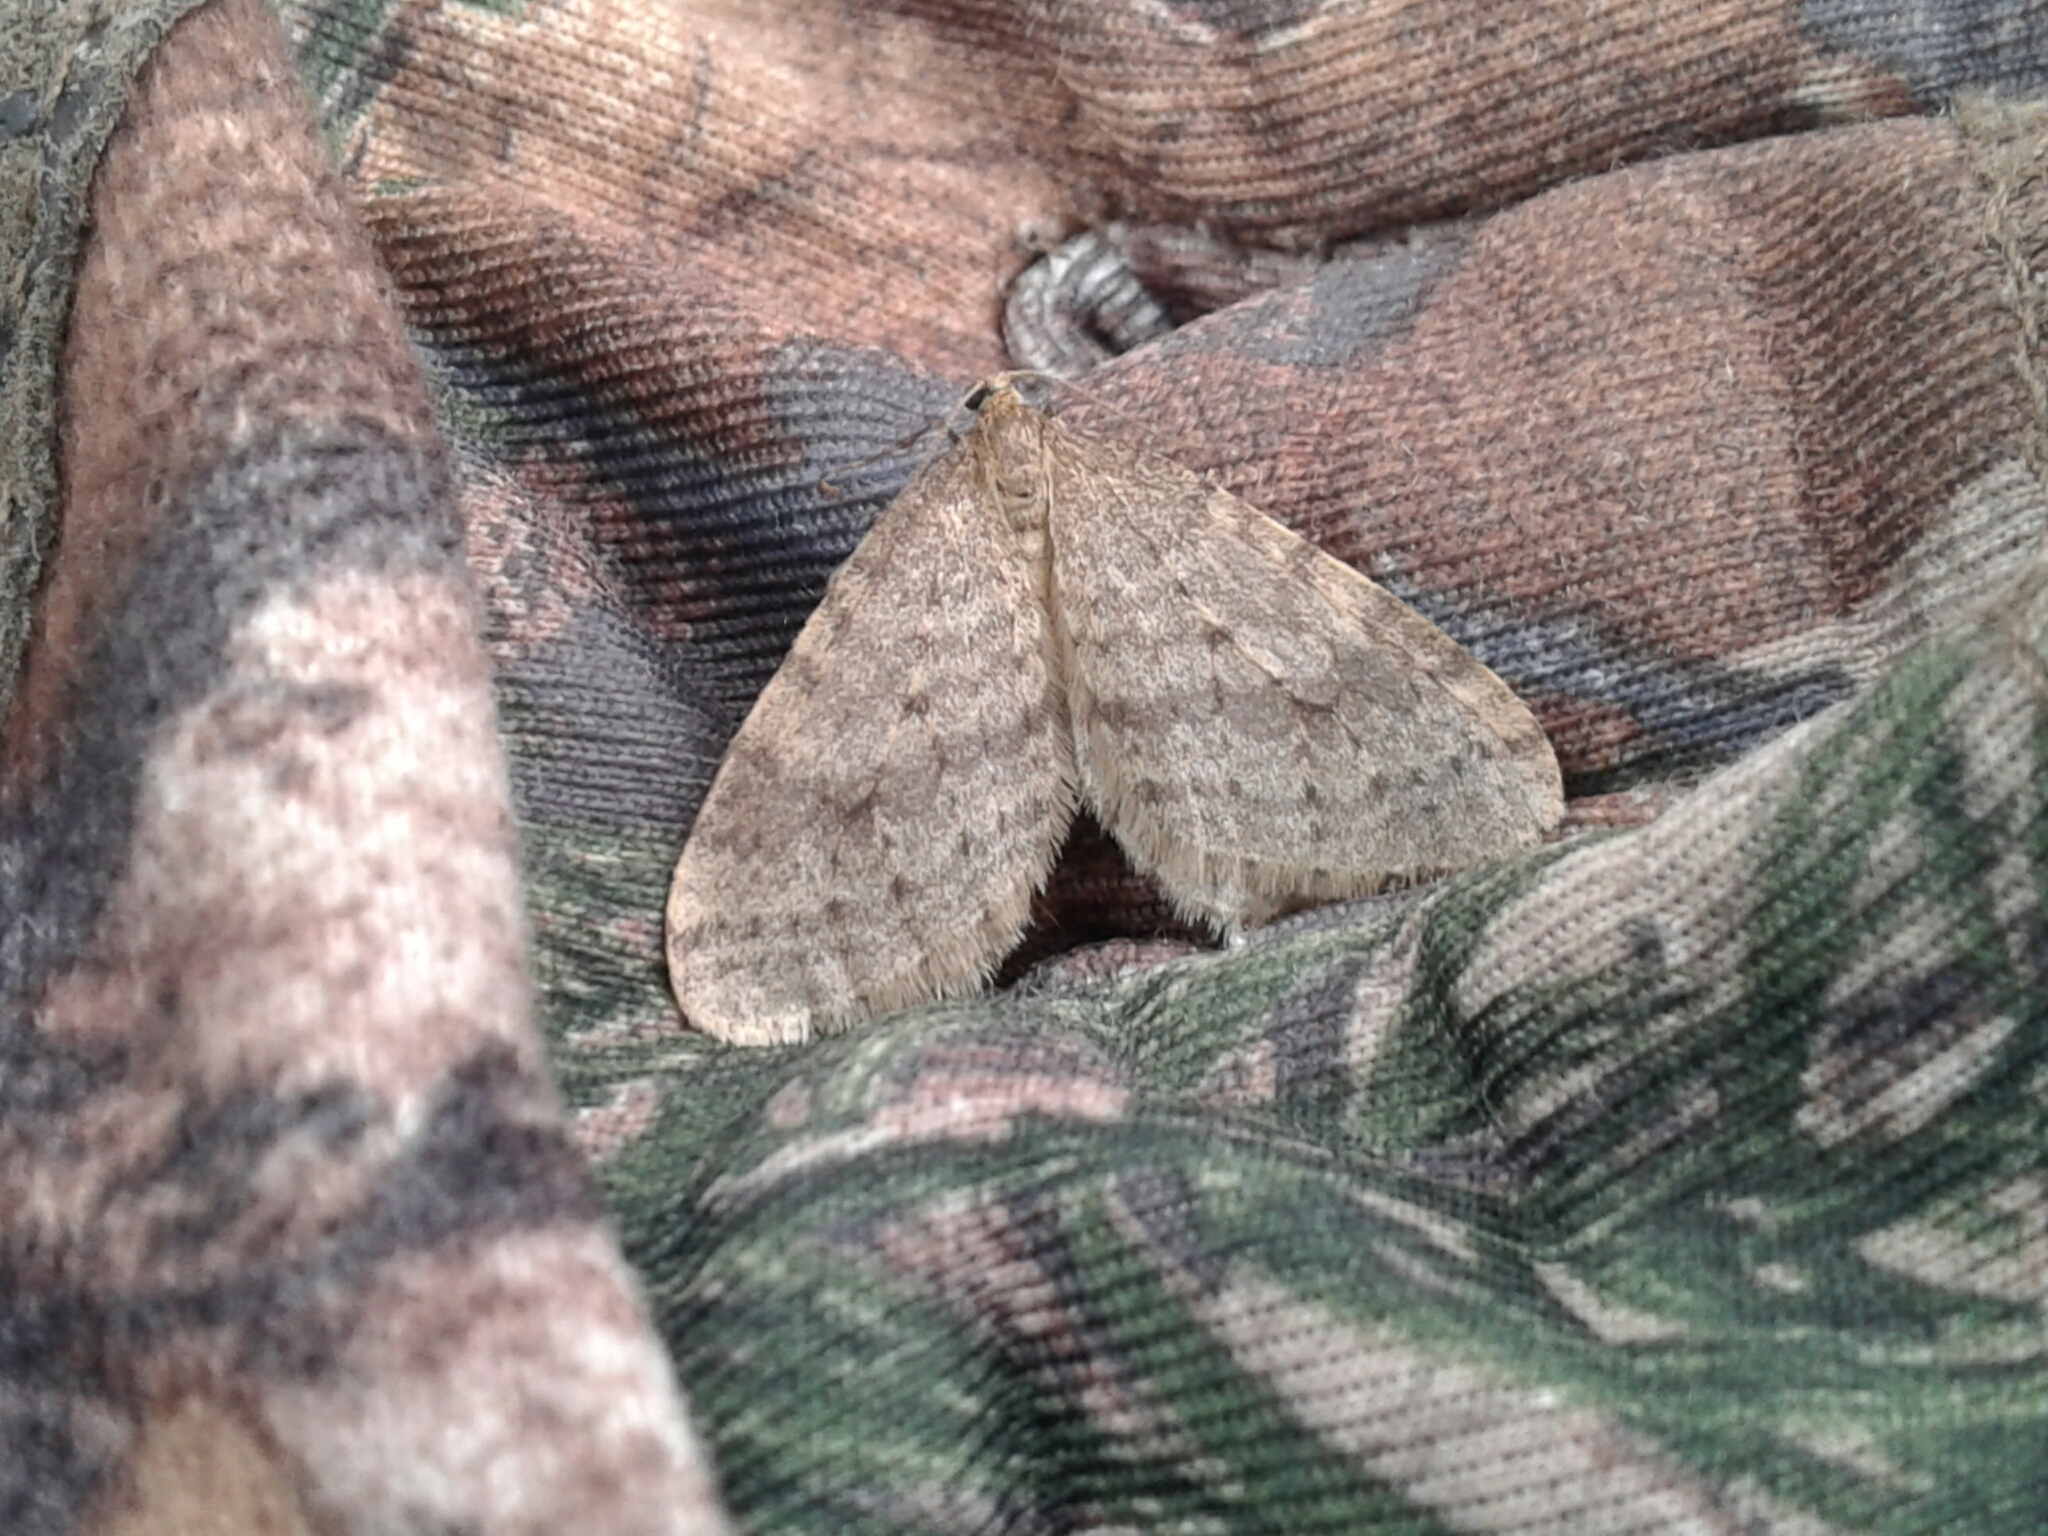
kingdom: Animalia
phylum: Arthropoda
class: Insecta
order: Lepidoptera
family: Geometridae
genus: Operophtera
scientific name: Operophtera bruceata
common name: Bruce spanworm
